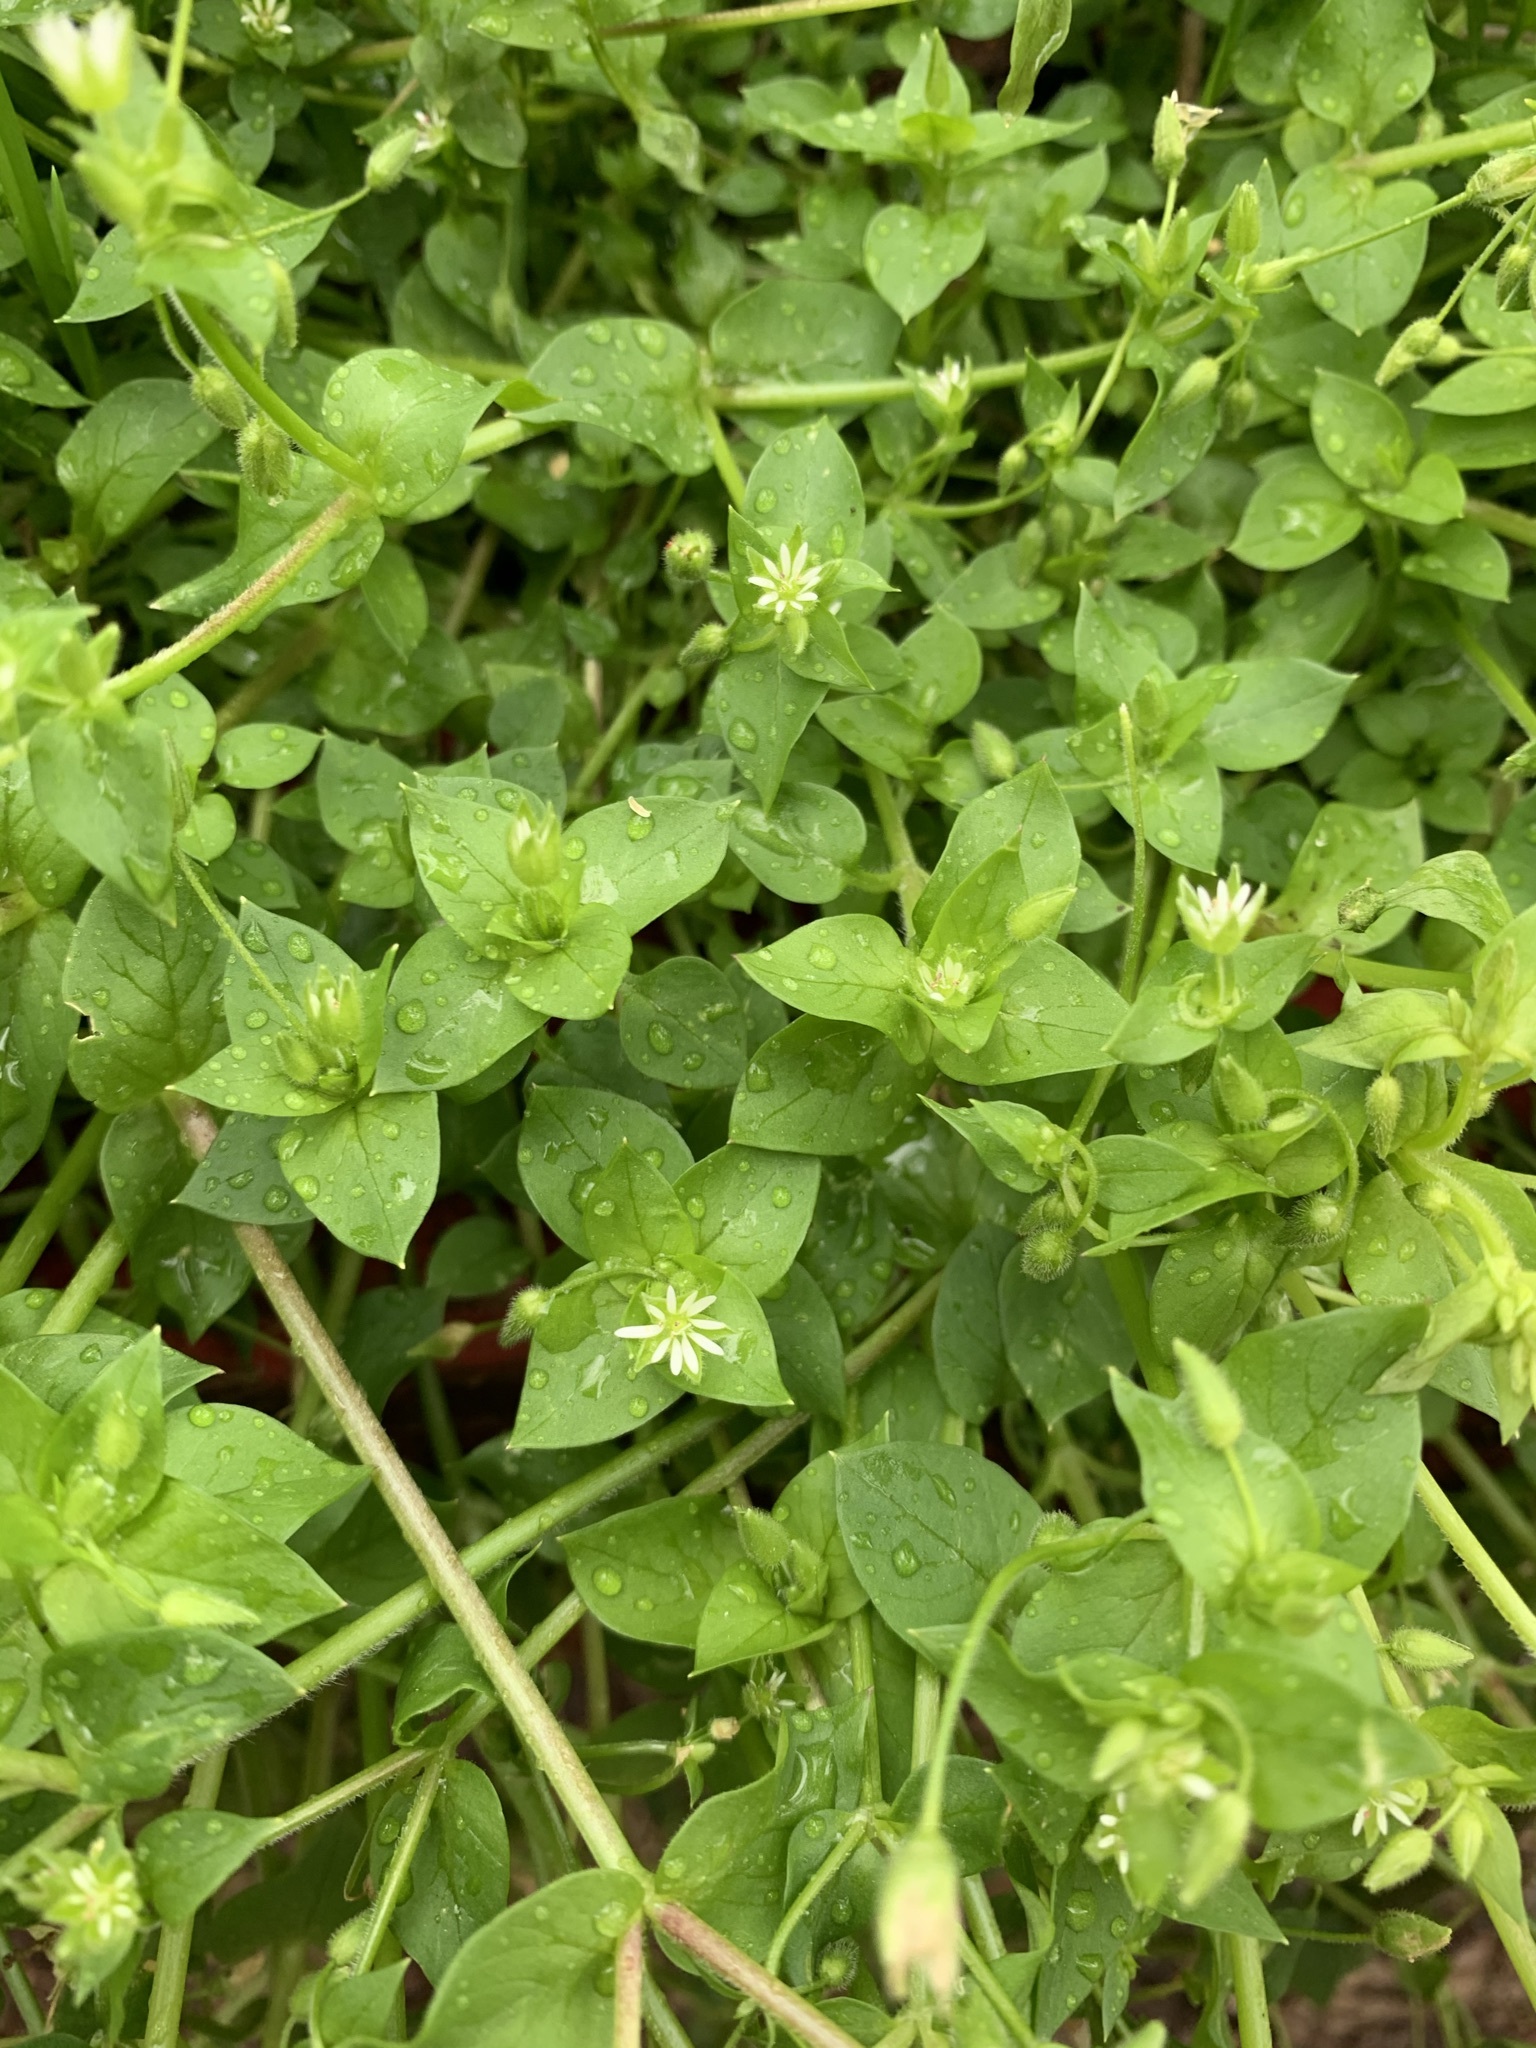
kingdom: Plantae
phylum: Tracheophyta
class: Magnoliopsida
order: Caryophyllales
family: Caryophyllaceae
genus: Stellaria
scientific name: Stellaria media
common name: Common chickweed
